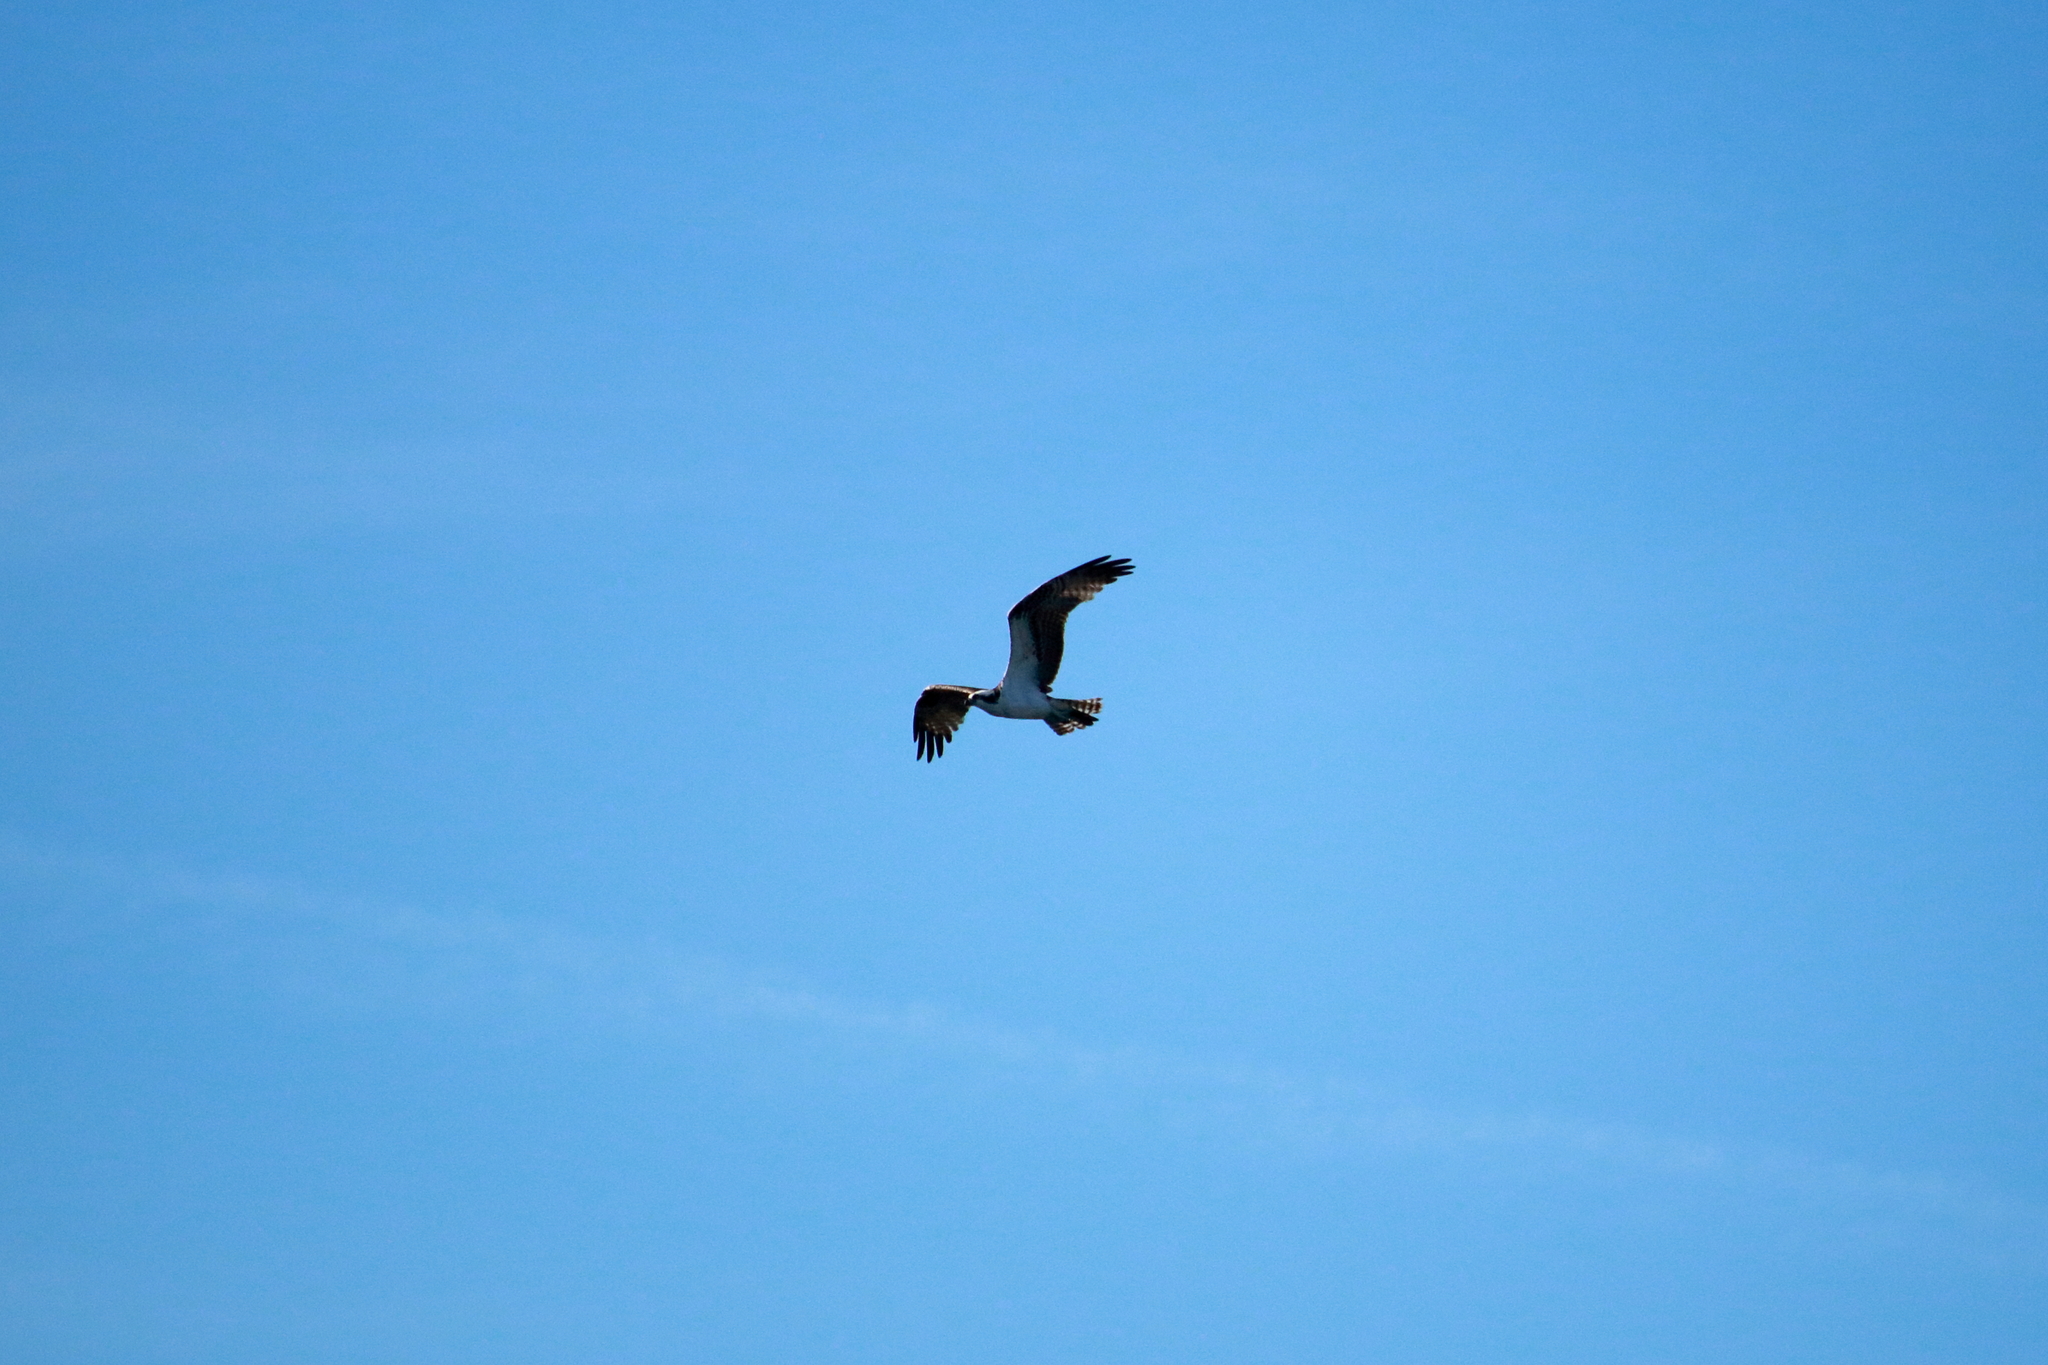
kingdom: Animalia
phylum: Chordata
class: Aves
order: Accipitriformes
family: Pandionidae
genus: Pandion
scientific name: Pandion haliaetus
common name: Osprey
